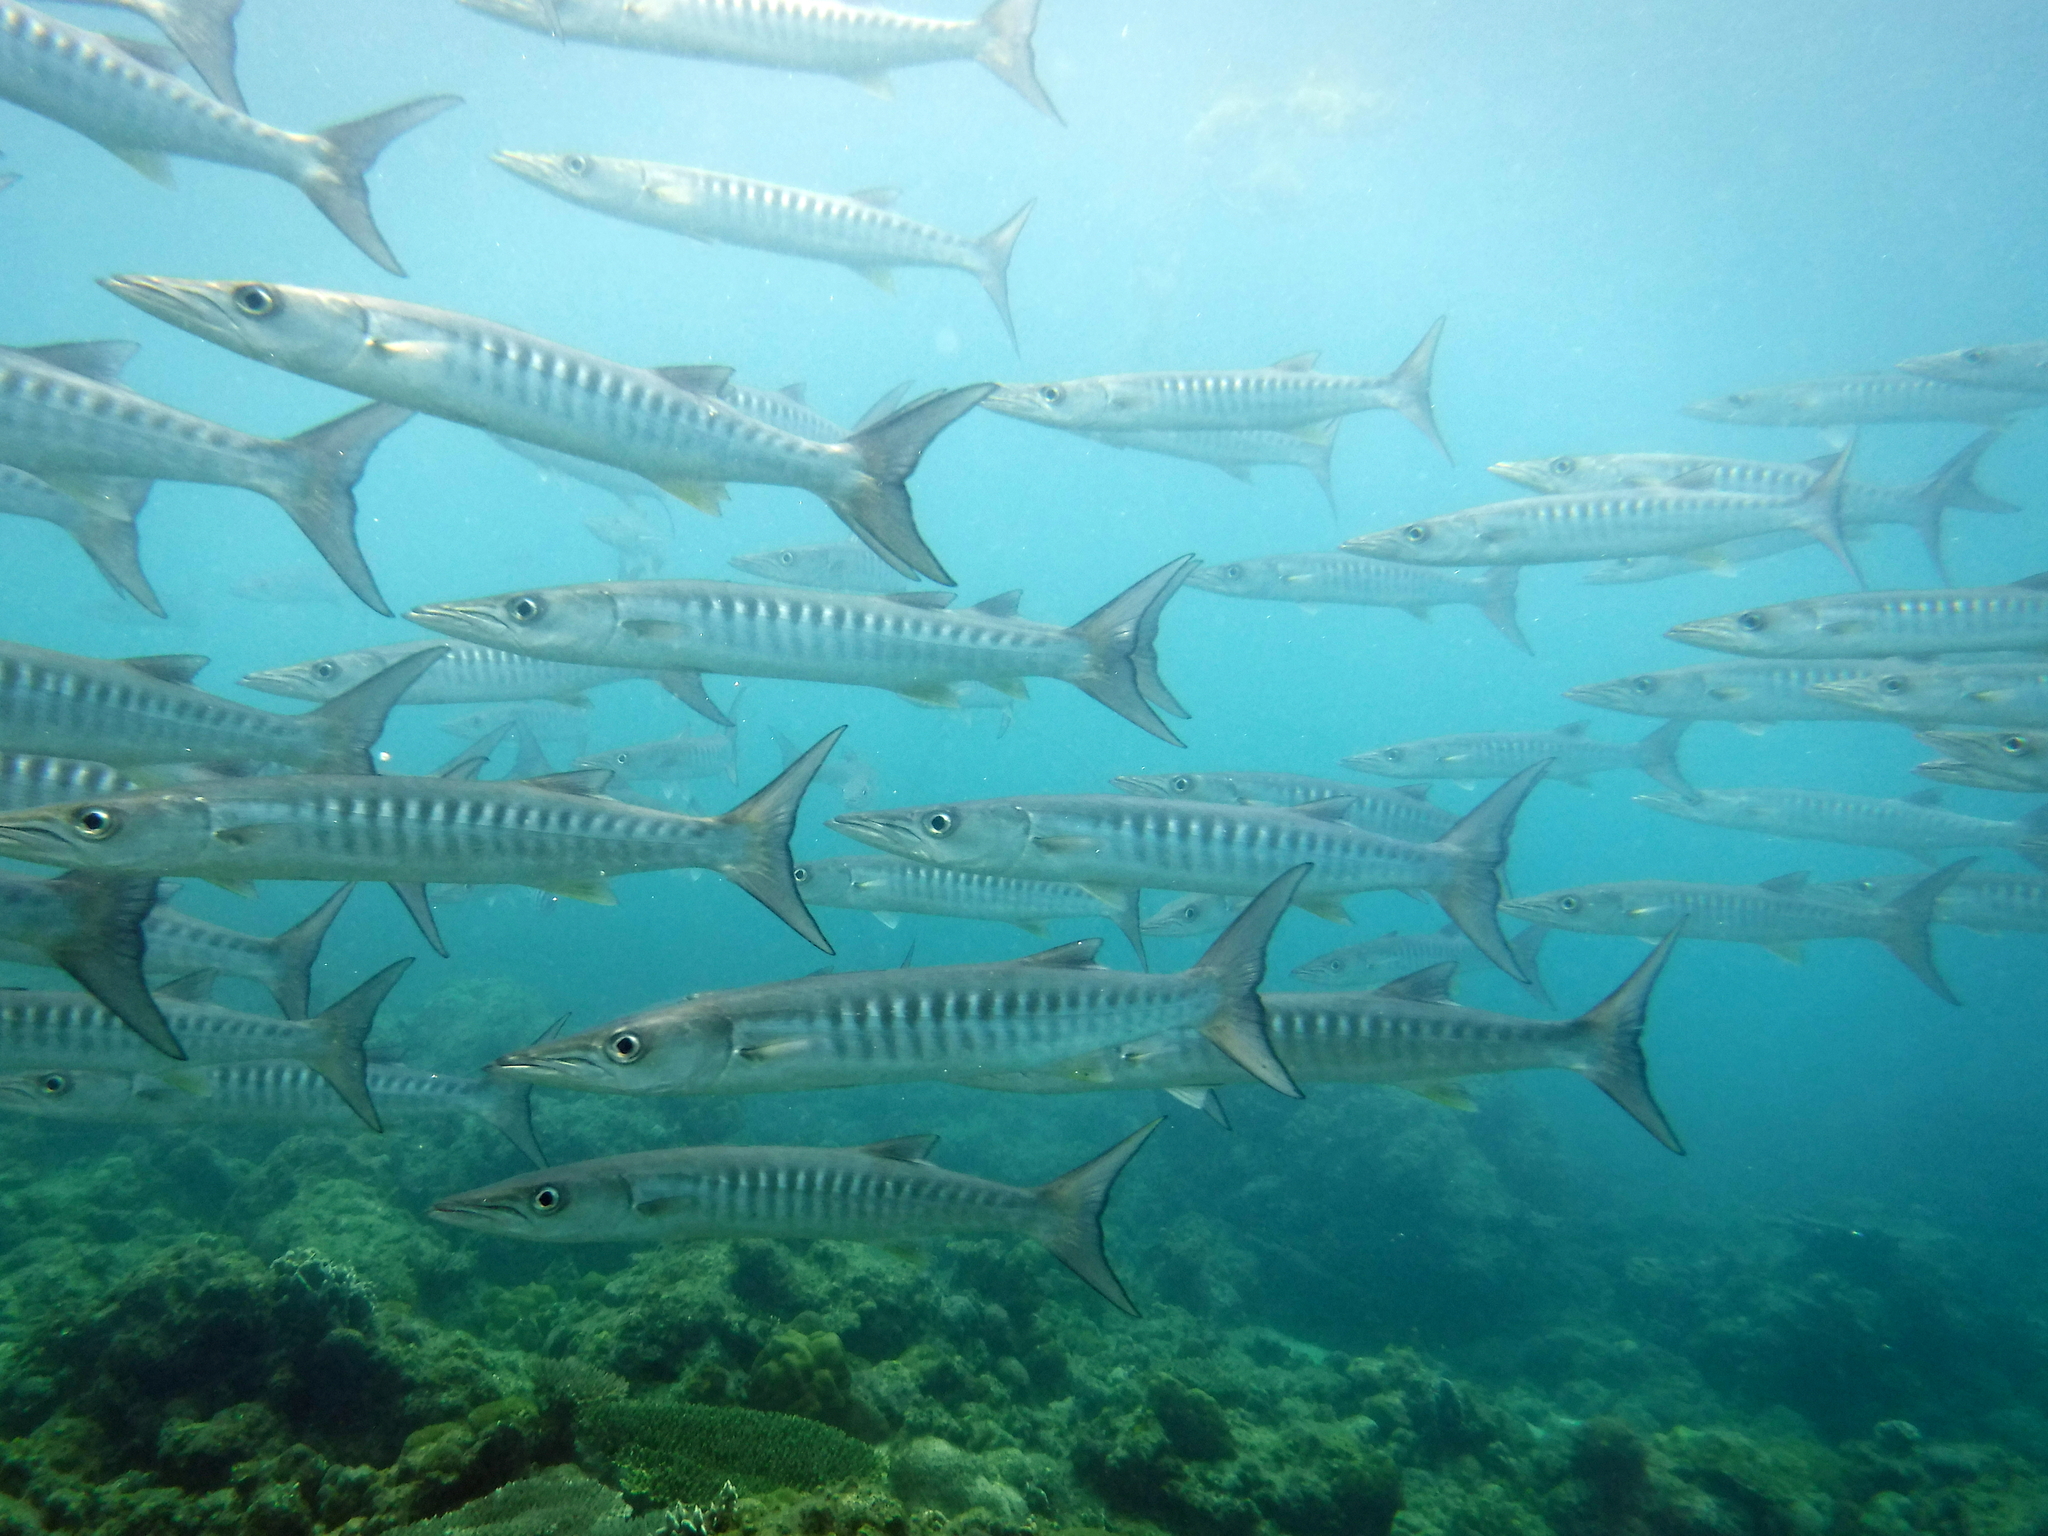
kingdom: Animalia
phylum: Chordata
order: Perciformes
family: Sphyraenidae
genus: Sphyraena
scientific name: Sphyraena qenie
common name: Blackfin barracuda
